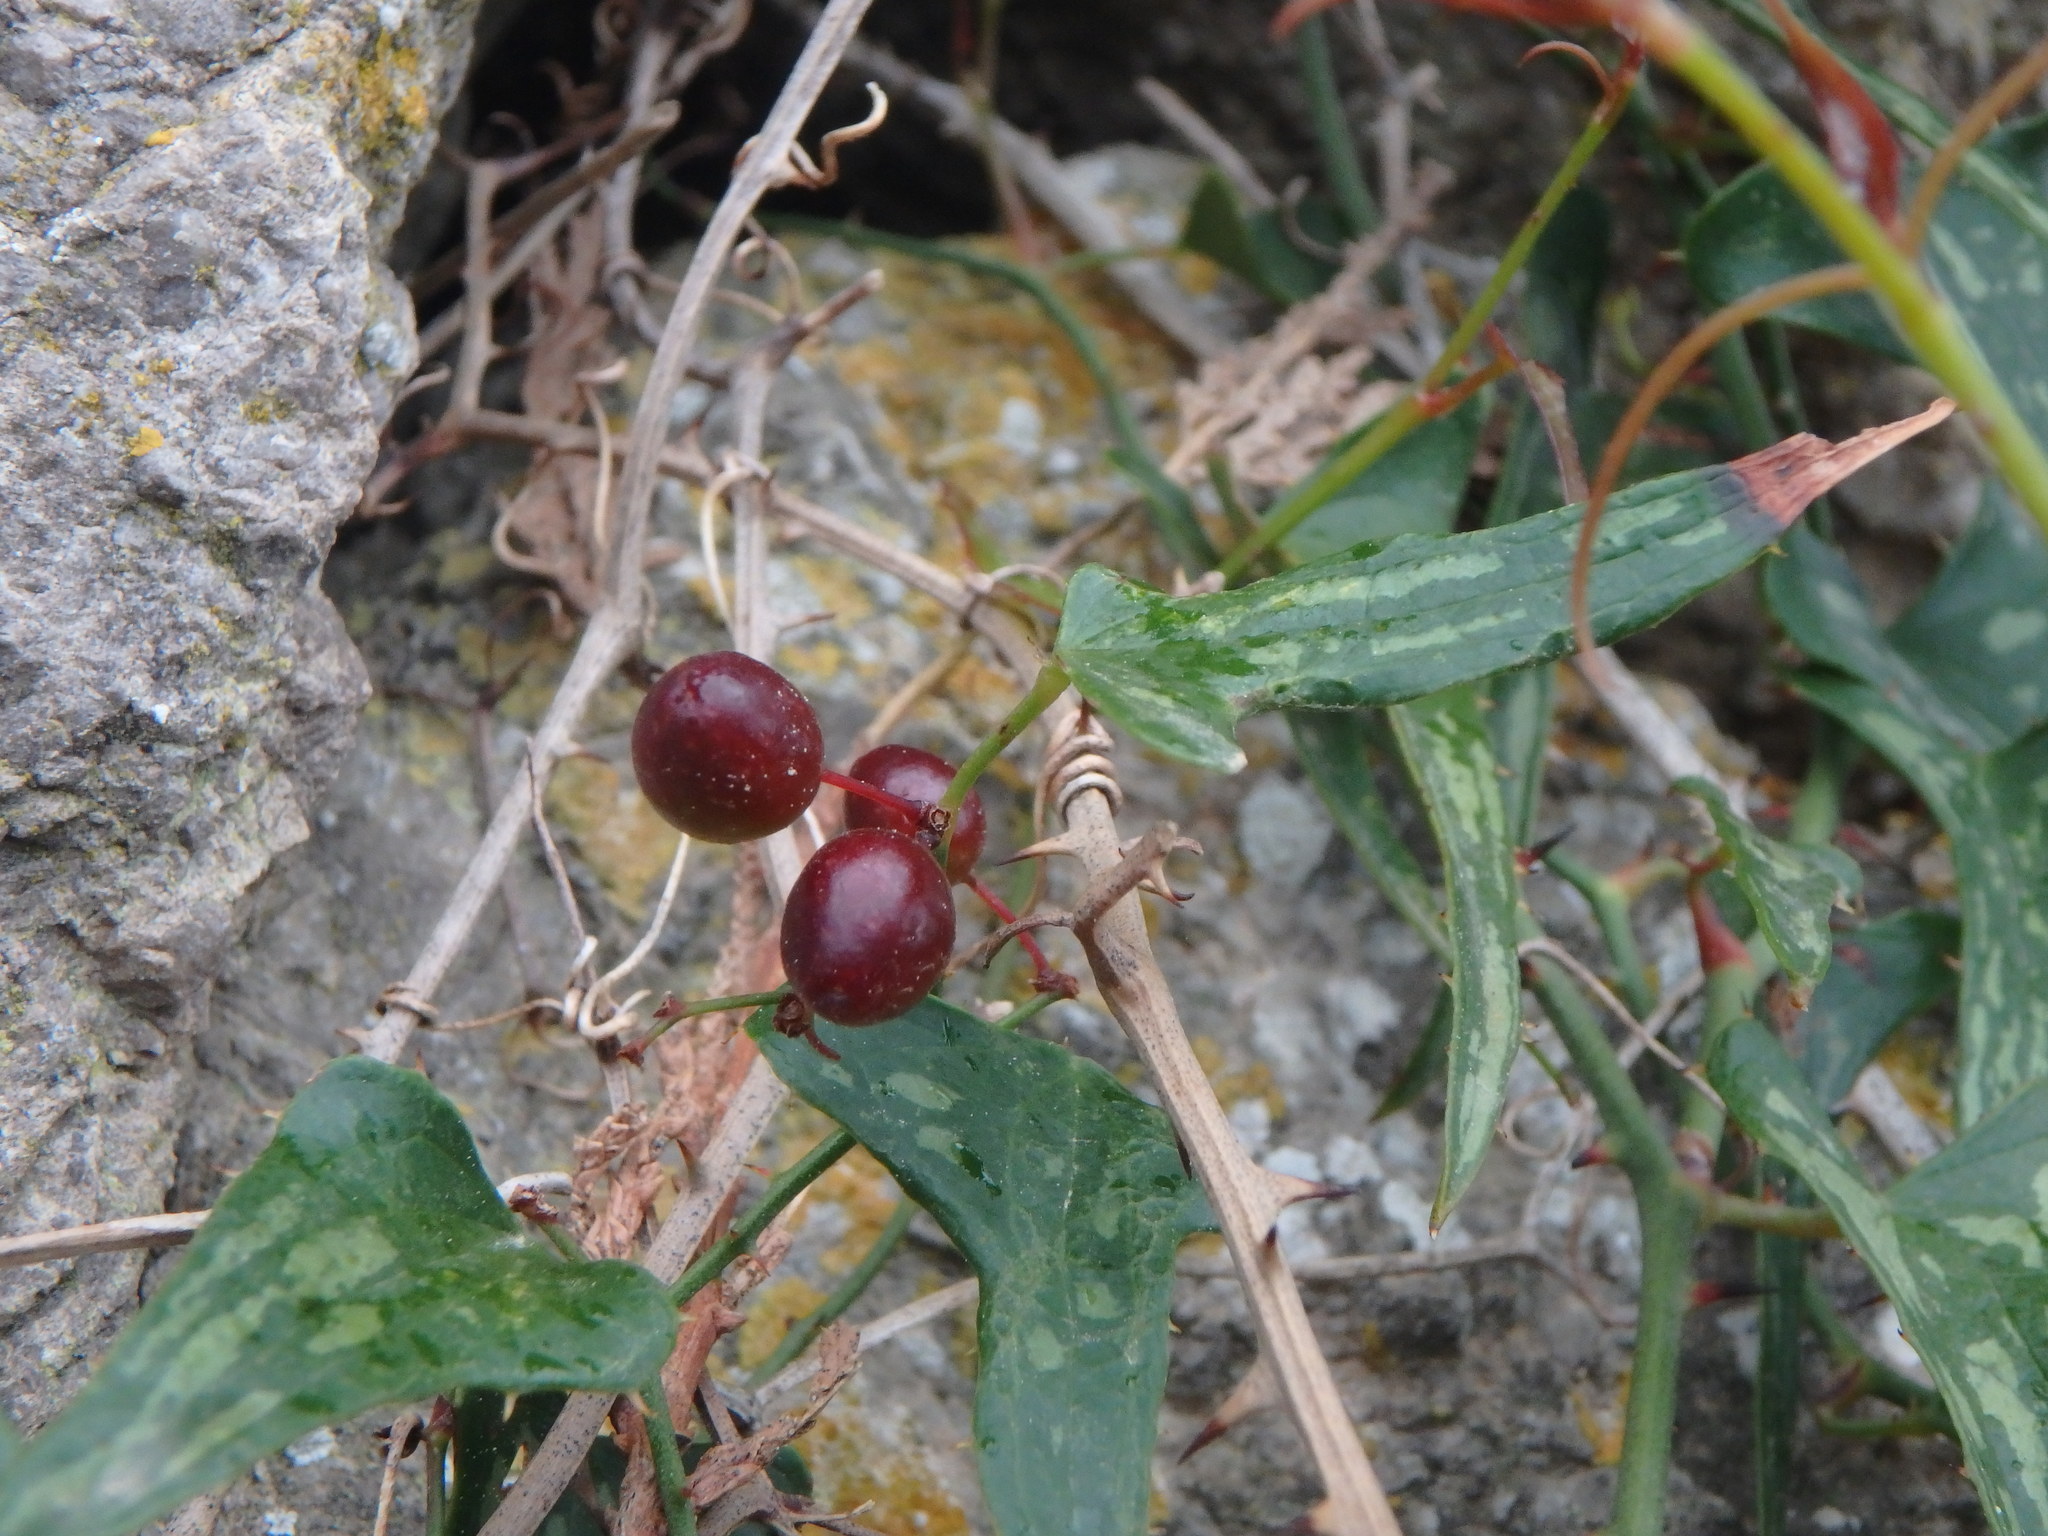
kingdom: Plantae
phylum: Tracheophyta
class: Liliopsida
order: Liliales
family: Smilacaceae
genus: Smilax
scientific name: Smilax aspera
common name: Common smilax
